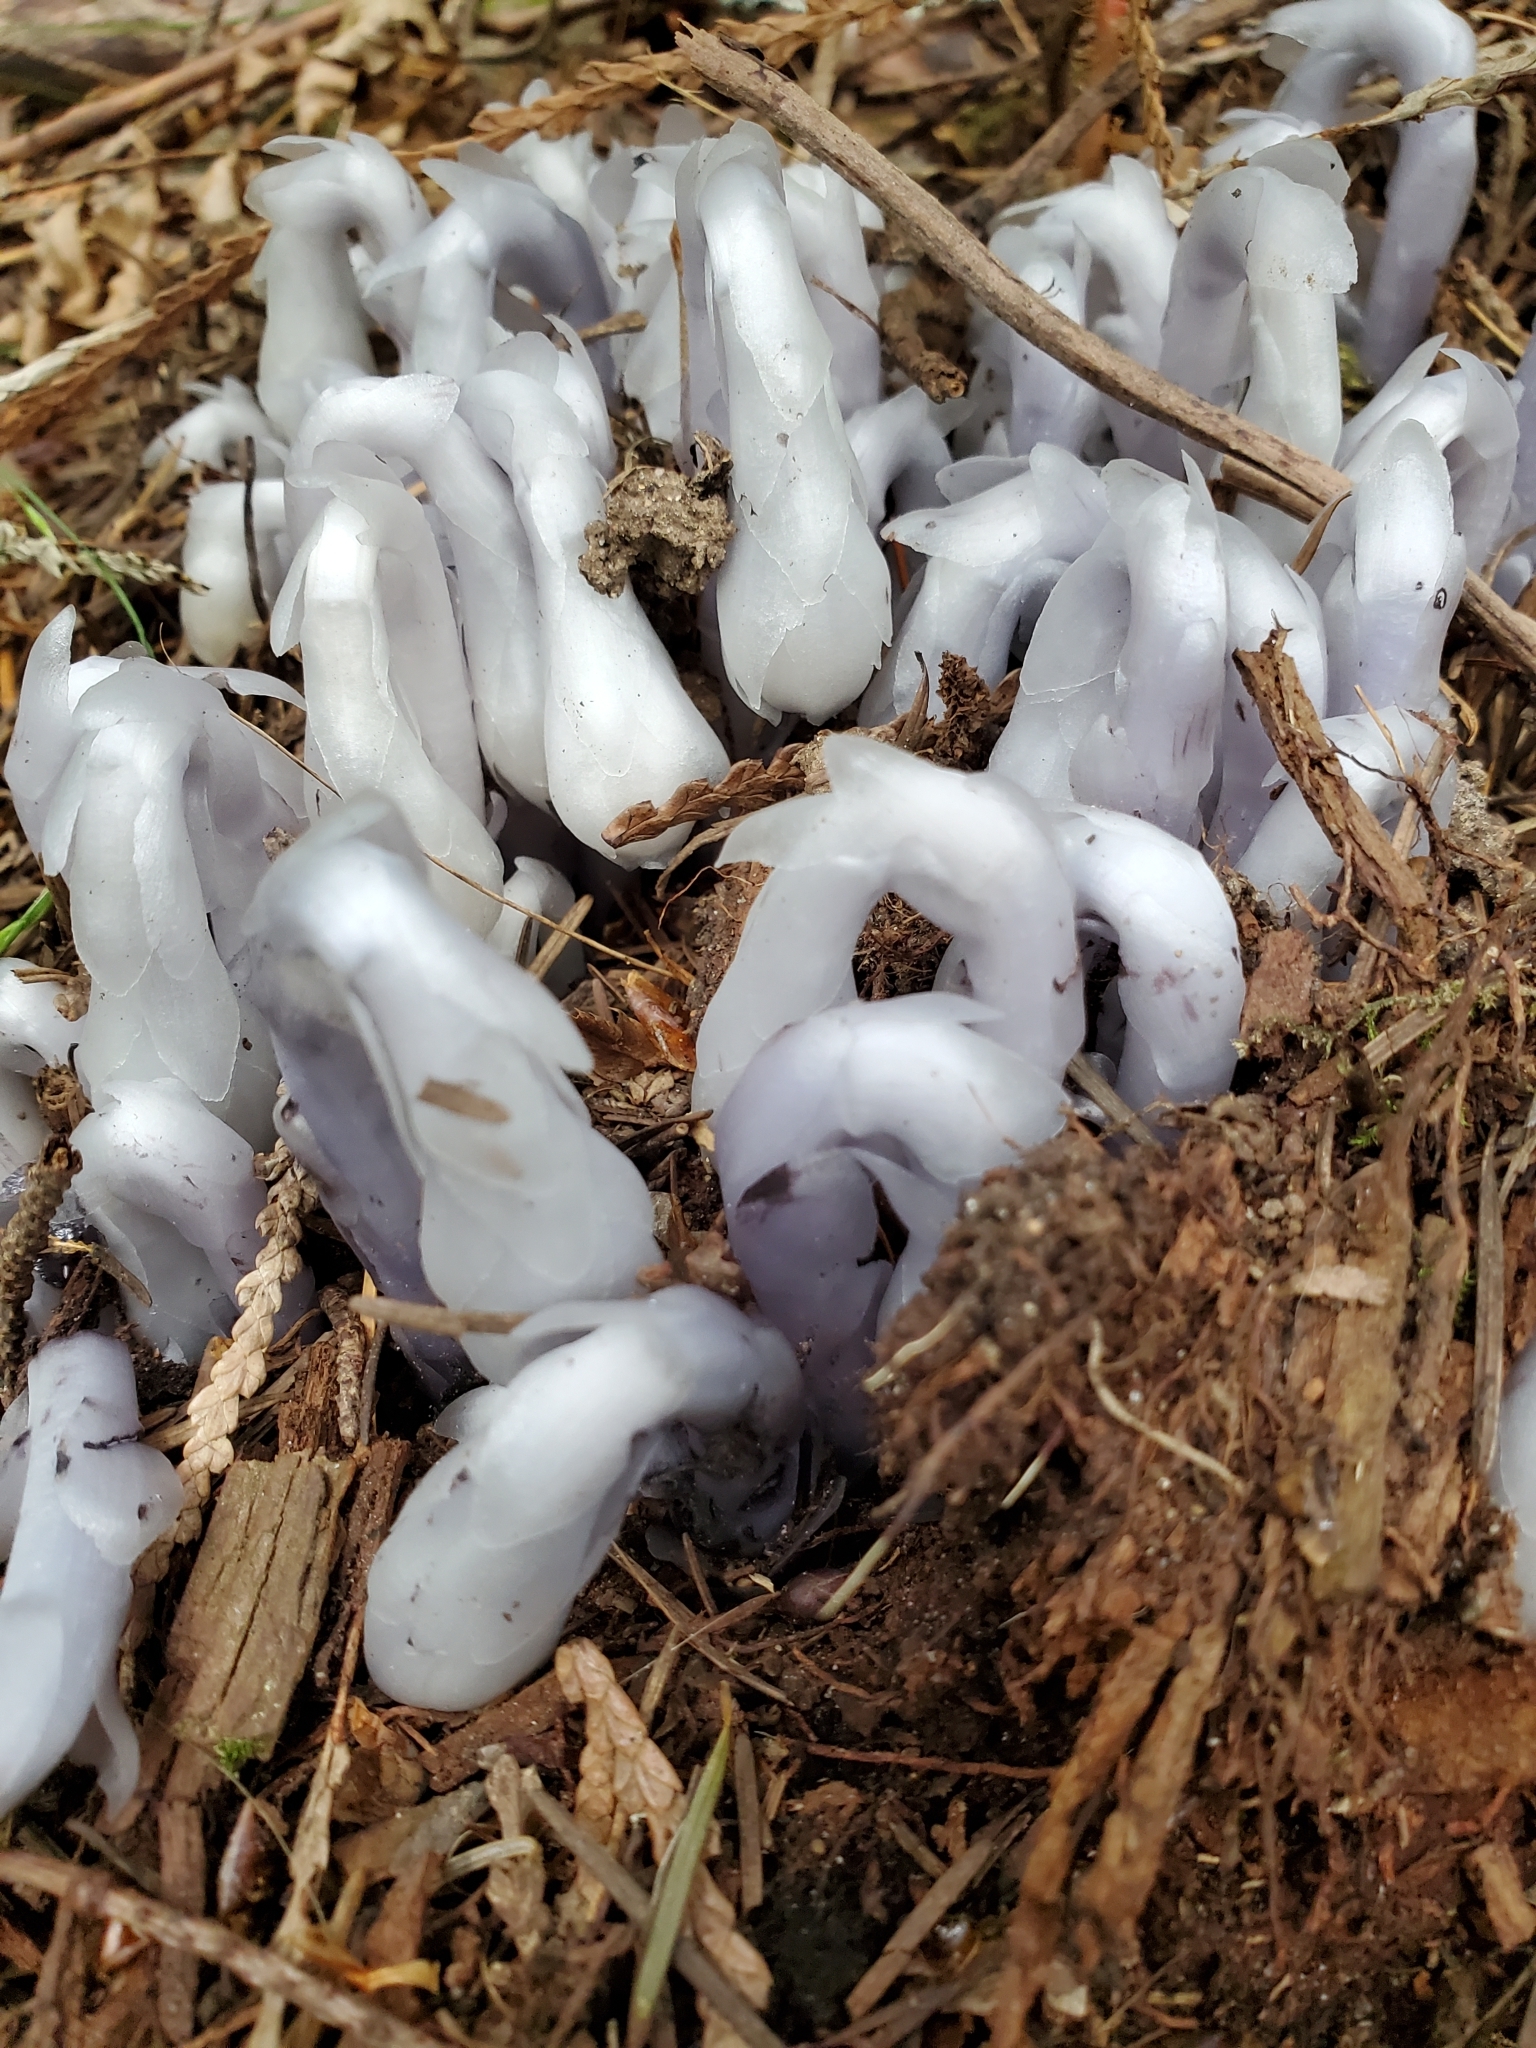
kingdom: Plantae
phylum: Tracheophyta
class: Magnoliopsida
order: Ericales
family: Ericaceae
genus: Monotropa
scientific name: Monotropa uniflora
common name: Convulsion root
